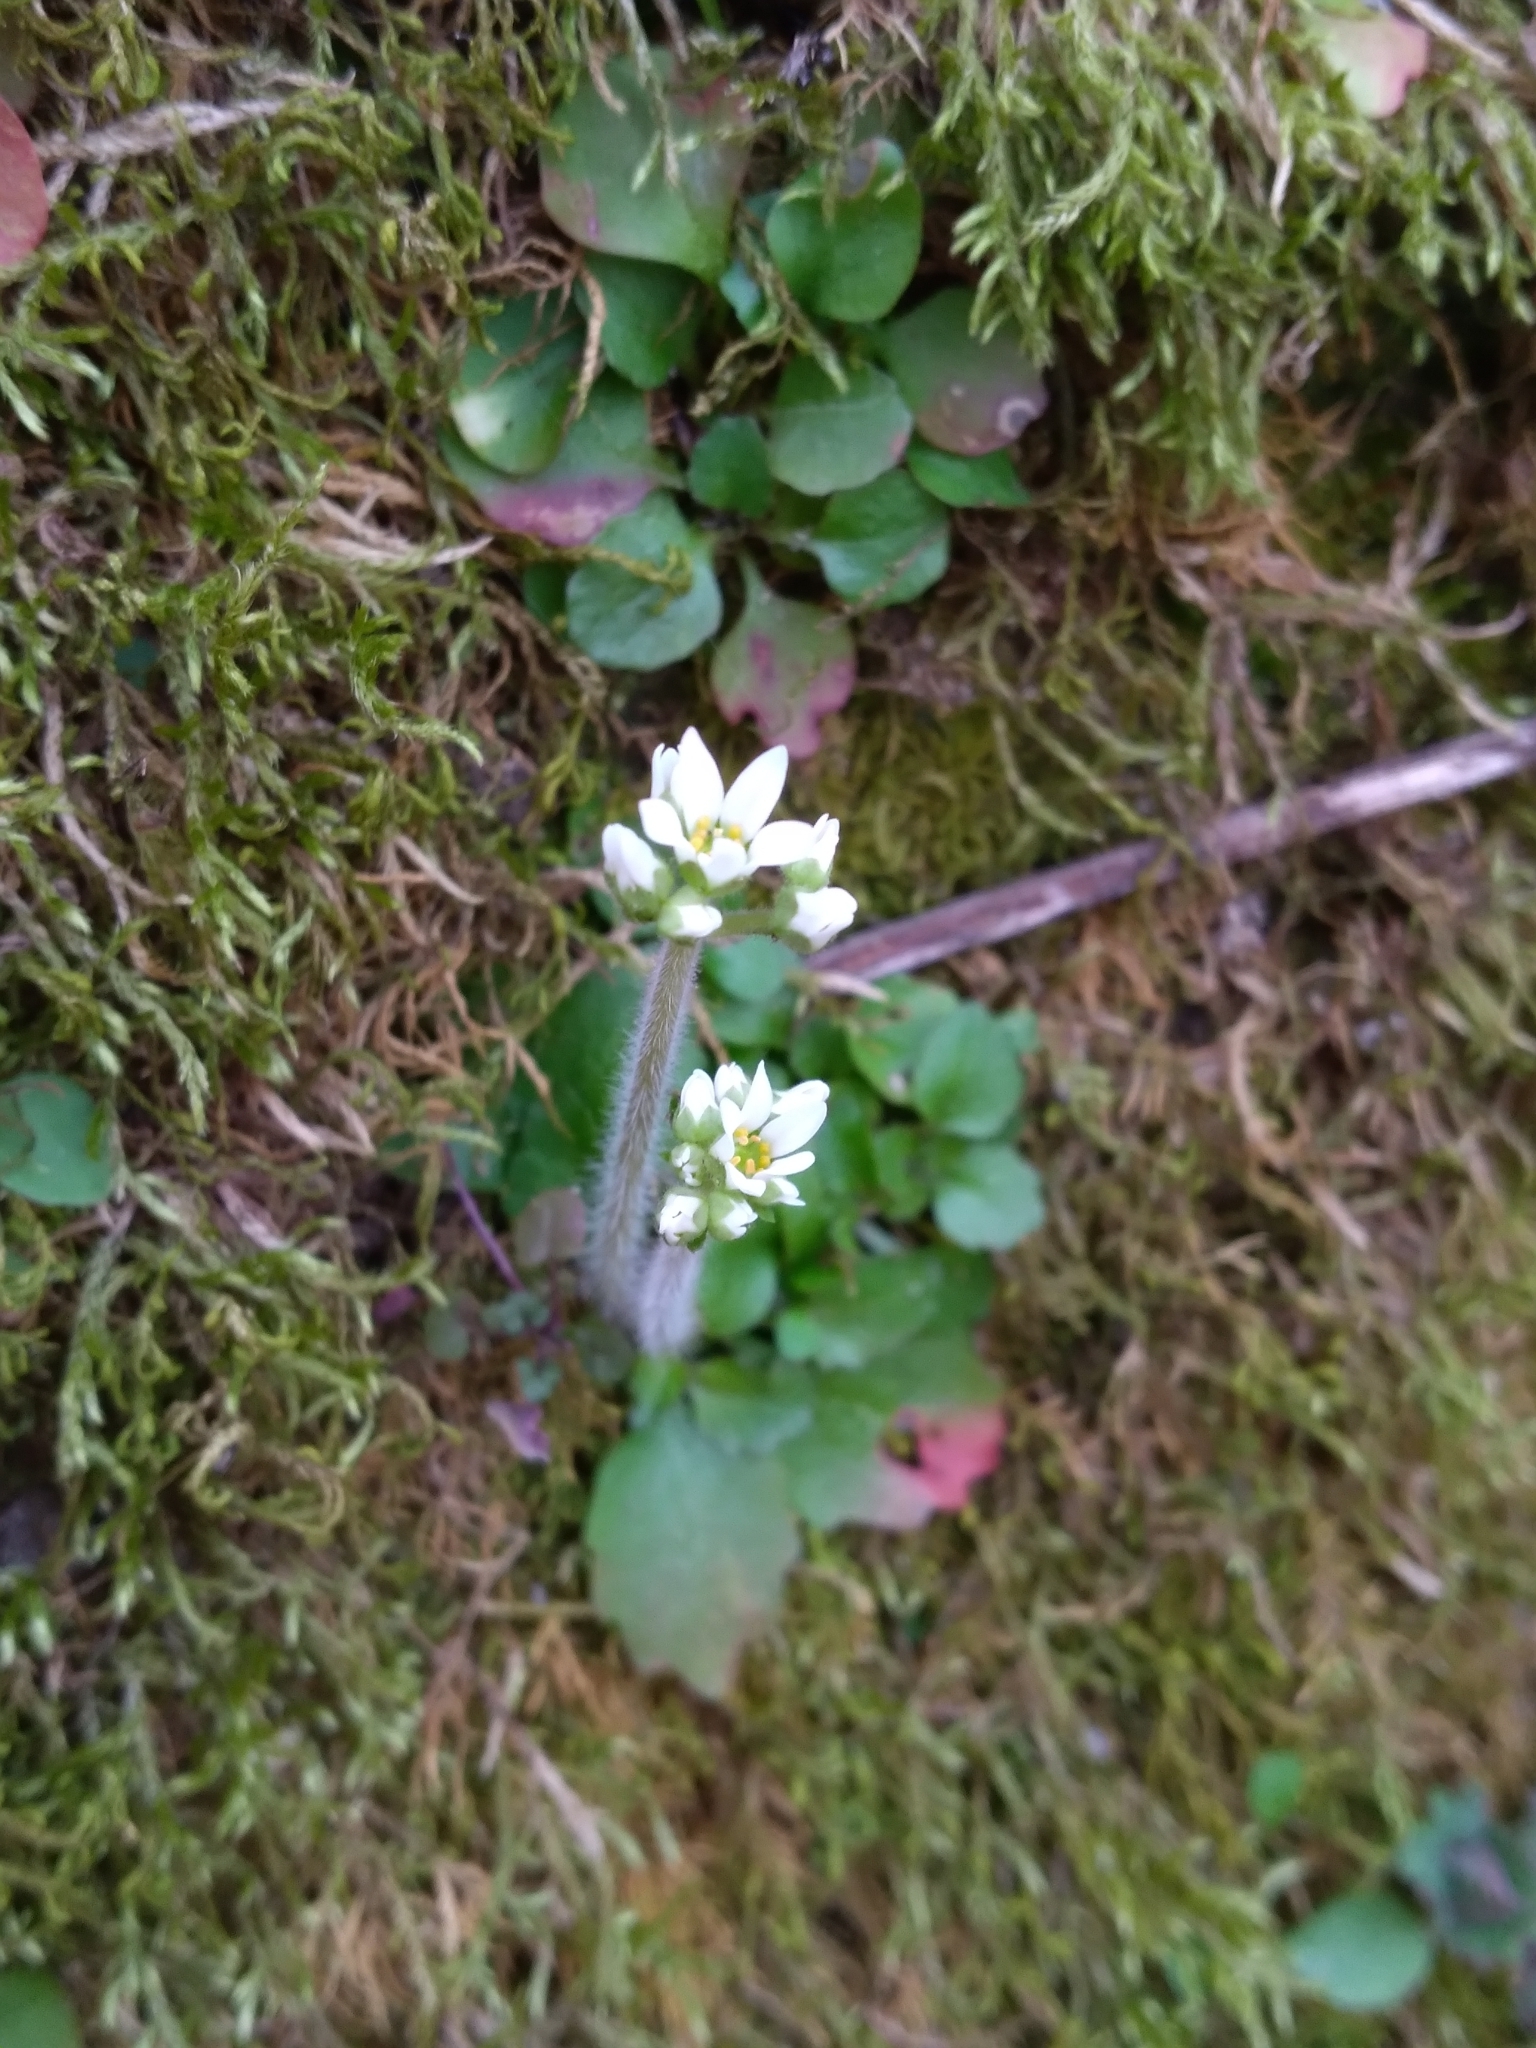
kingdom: Plantae
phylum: Tracheophyta
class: Magnoliopsida
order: Saxifragales
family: Saxifragaceae
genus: Micranthes
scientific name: Micranthes virginiensis
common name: Early saxifrage
